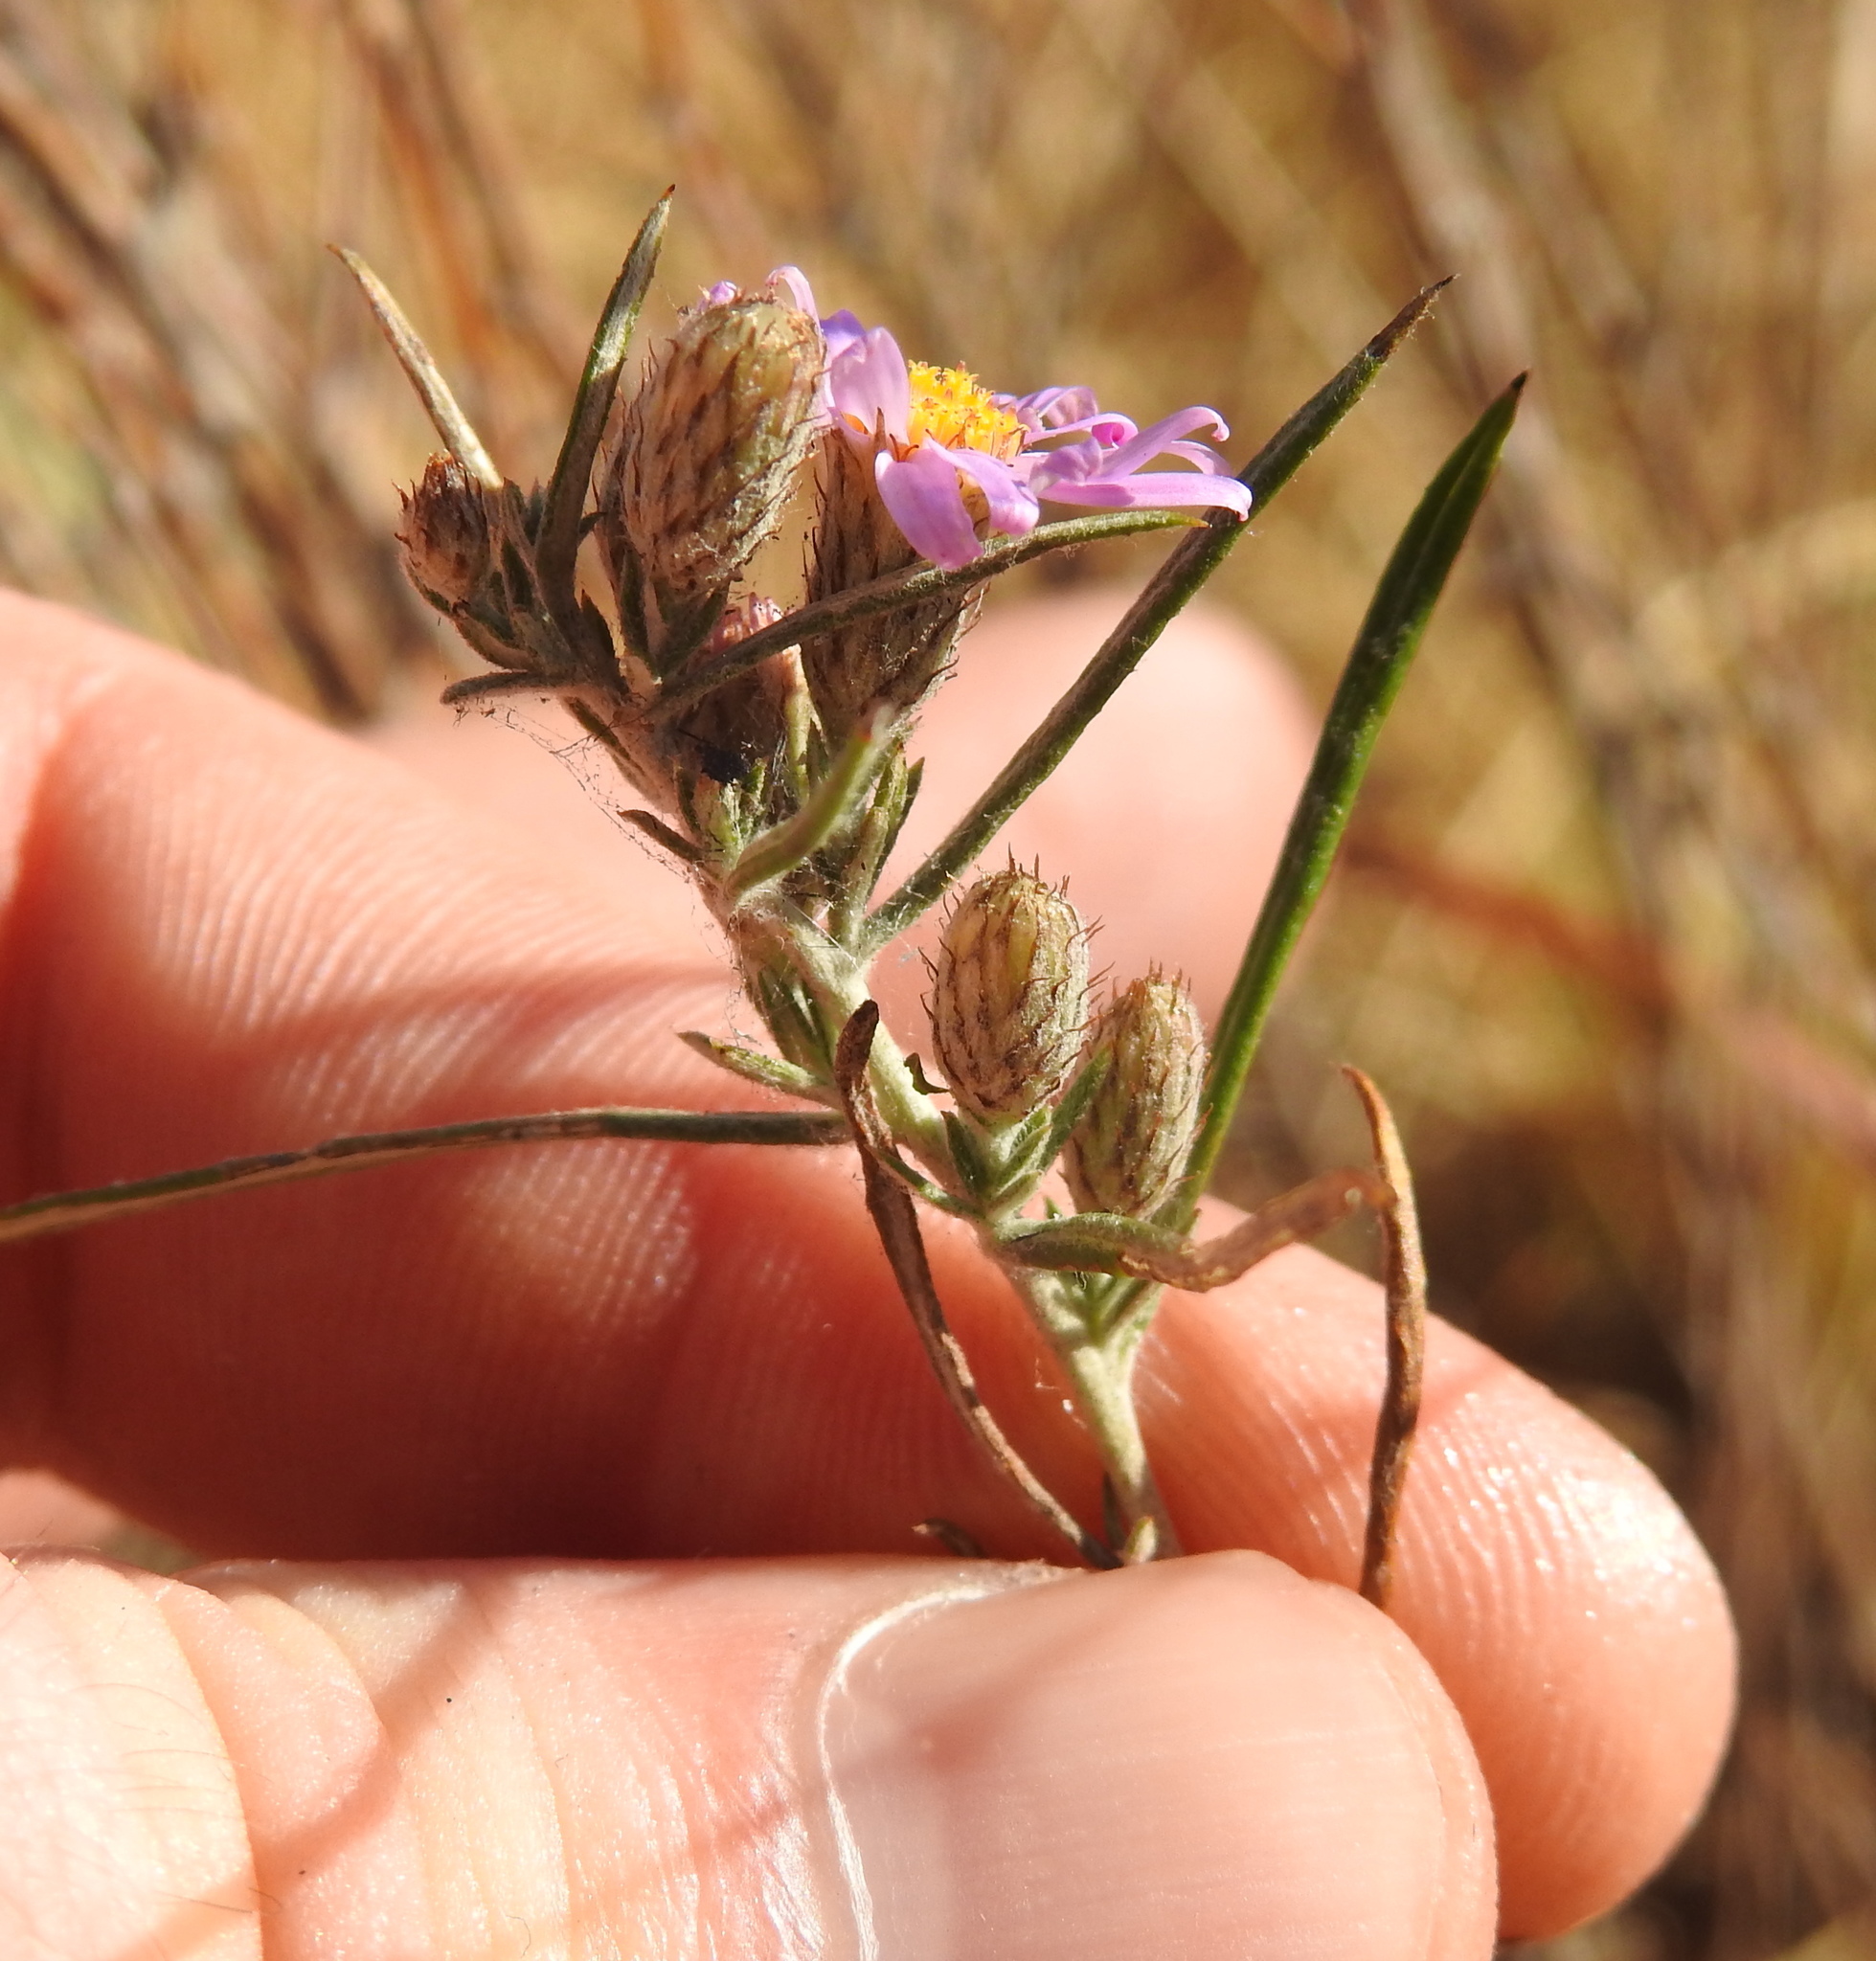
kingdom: Plantae
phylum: Tracheophyta
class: Magnoliopsida
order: Asterales
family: Asteraceae
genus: Athrixia
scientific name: Athrixia elata
